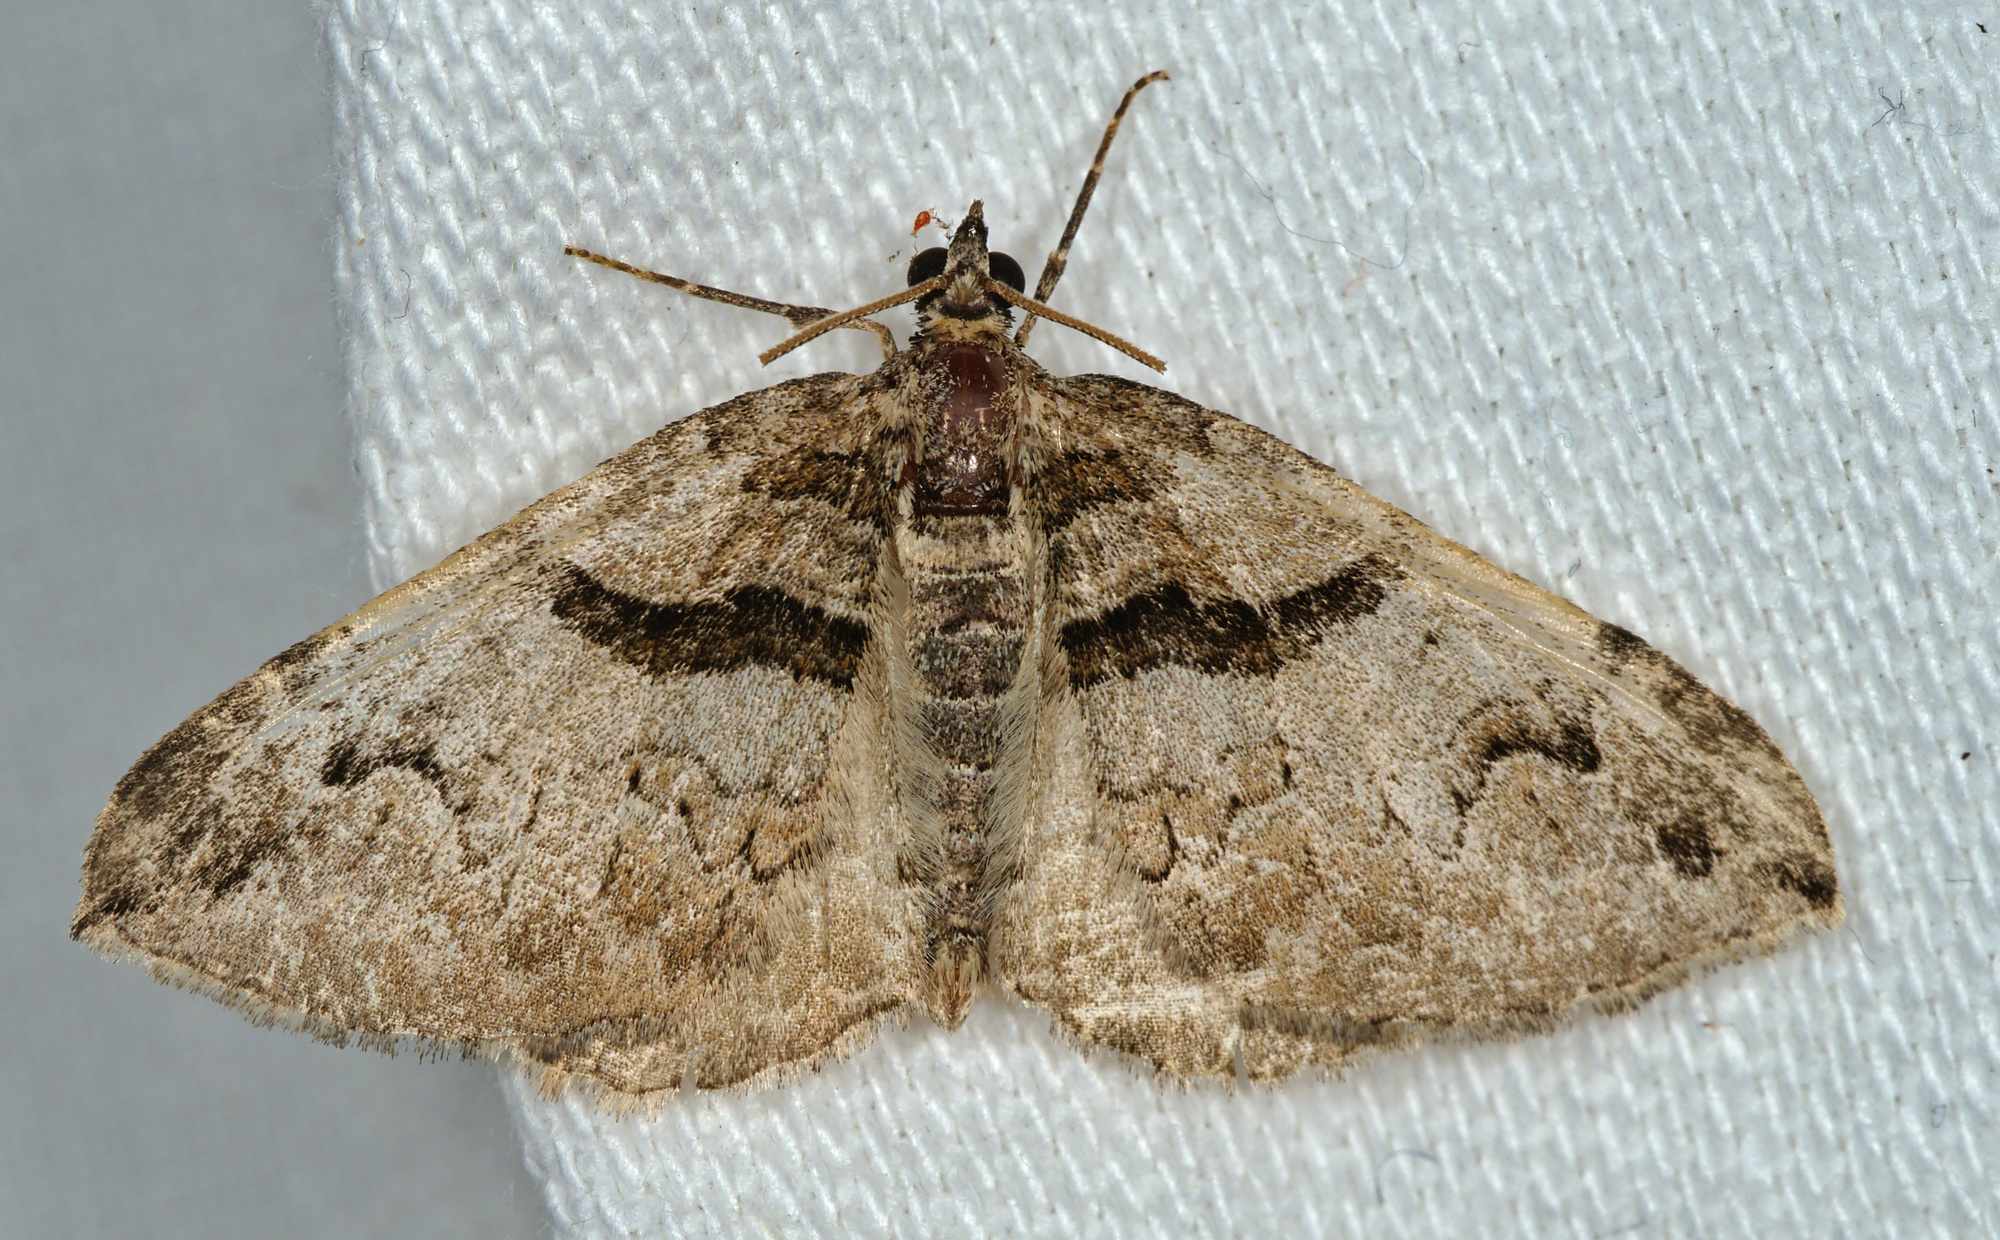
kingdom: Animalia
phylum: Arthropoda
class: Insecta
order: Lepidoptera
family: Geometridae
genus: Pareulype
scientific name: Pareulype berberata
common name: Barberry carpet
